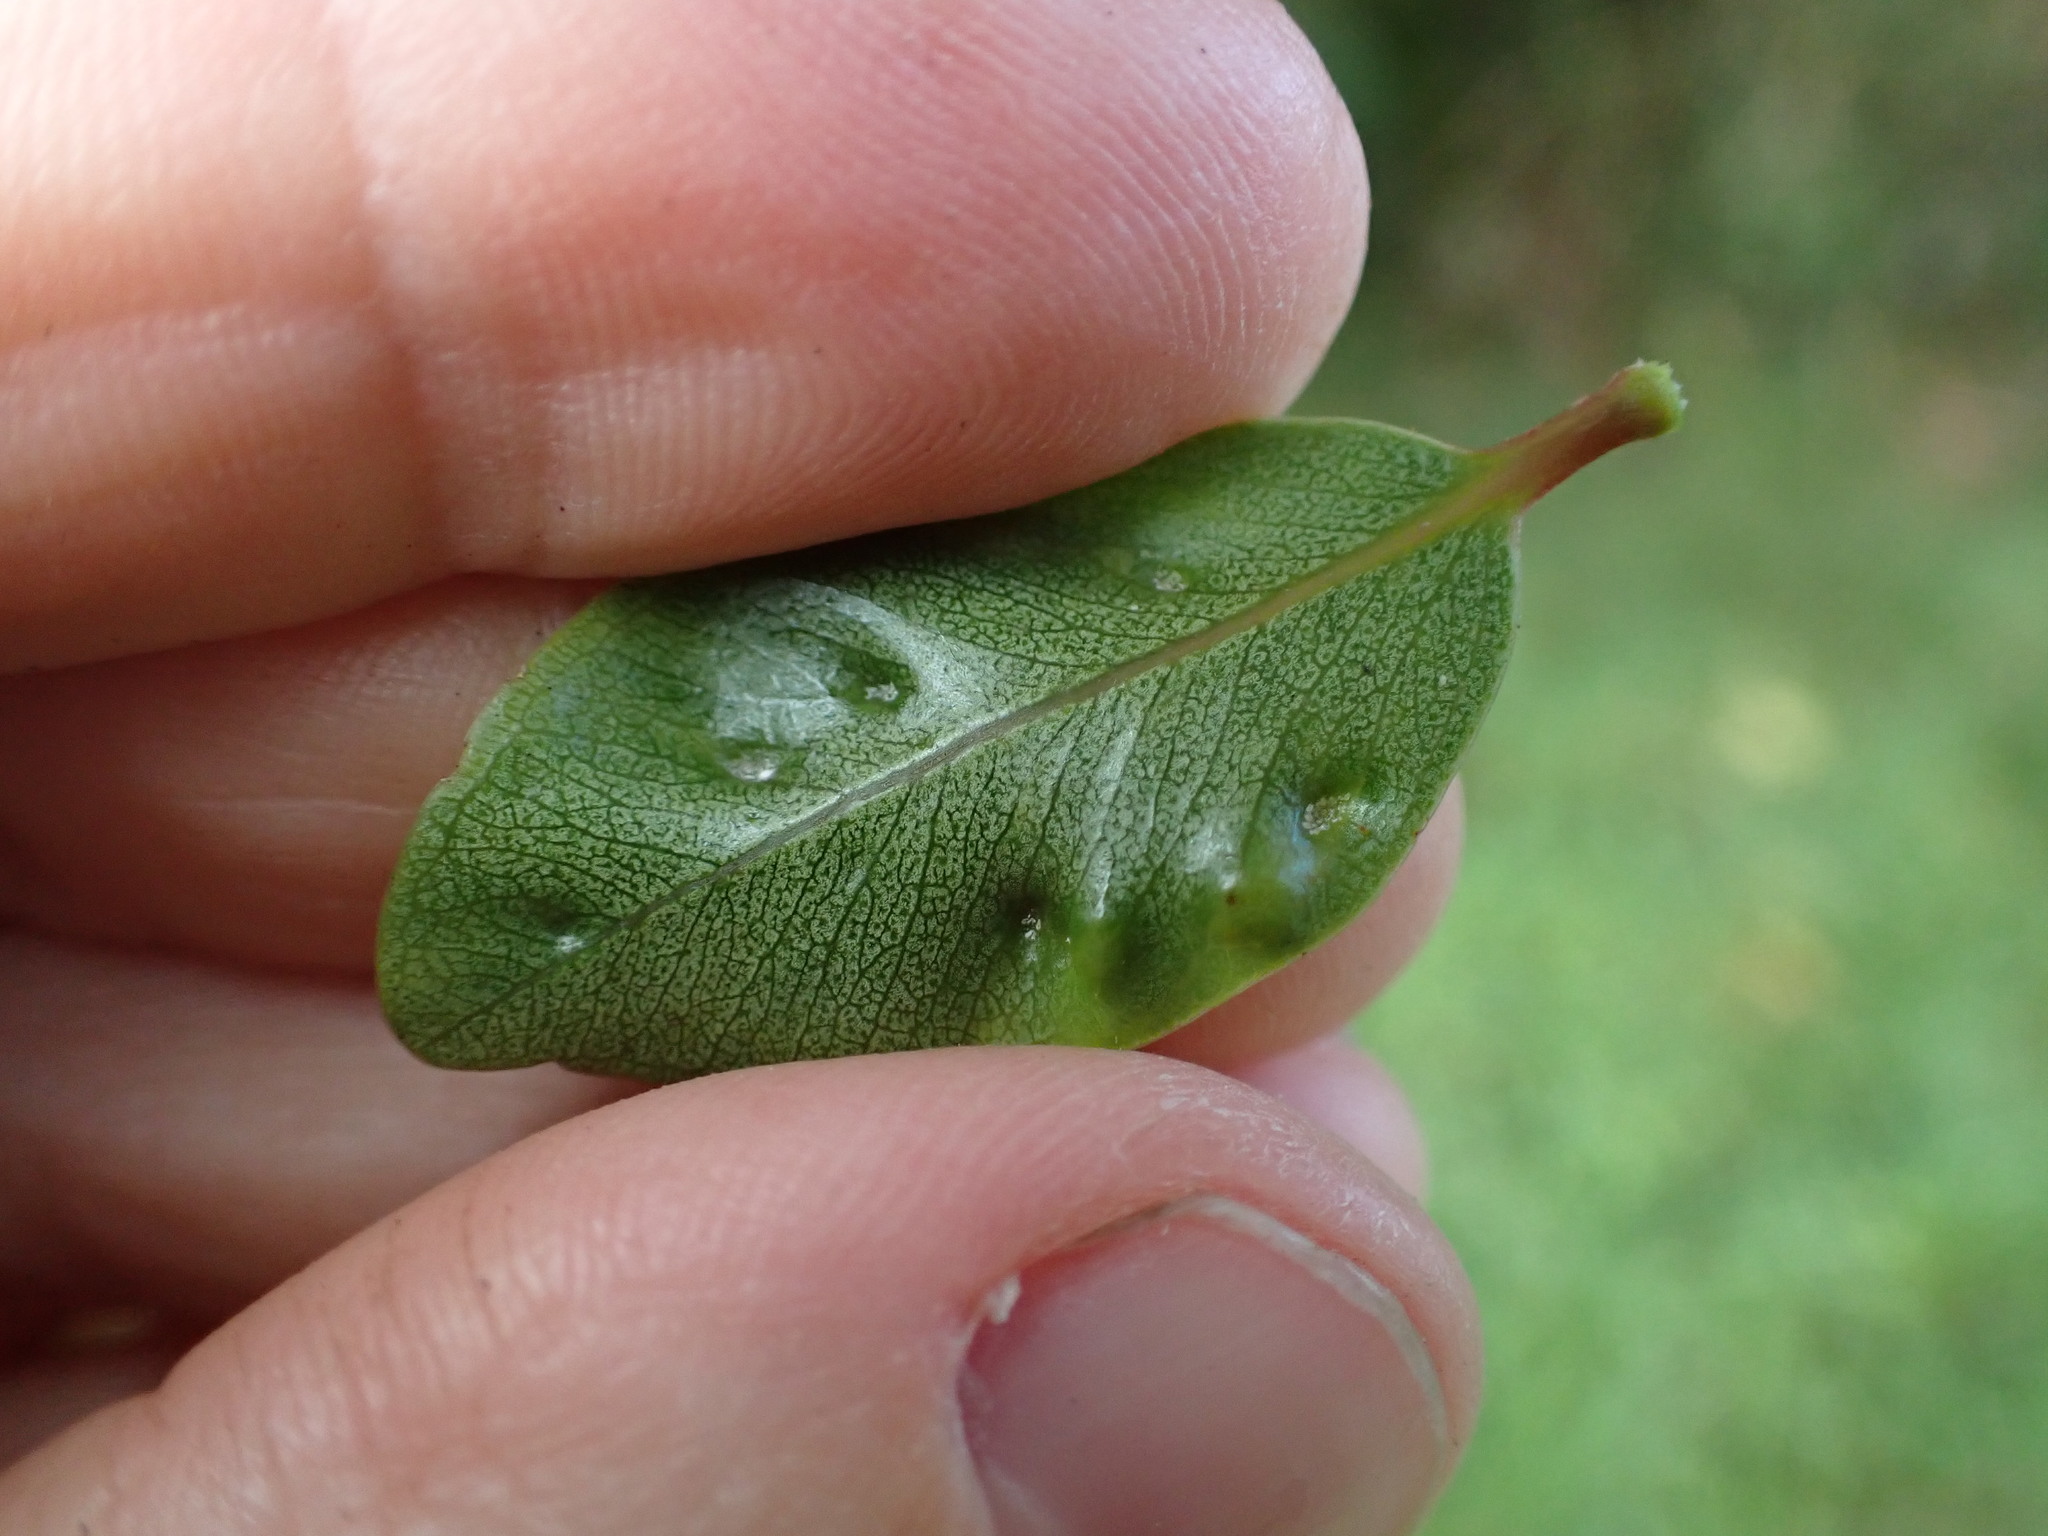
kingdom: Animalia
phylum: Arthropoda
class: Insecta
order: Hemiptera
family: Triozidae
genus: Trioza
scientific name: Trioza curta
